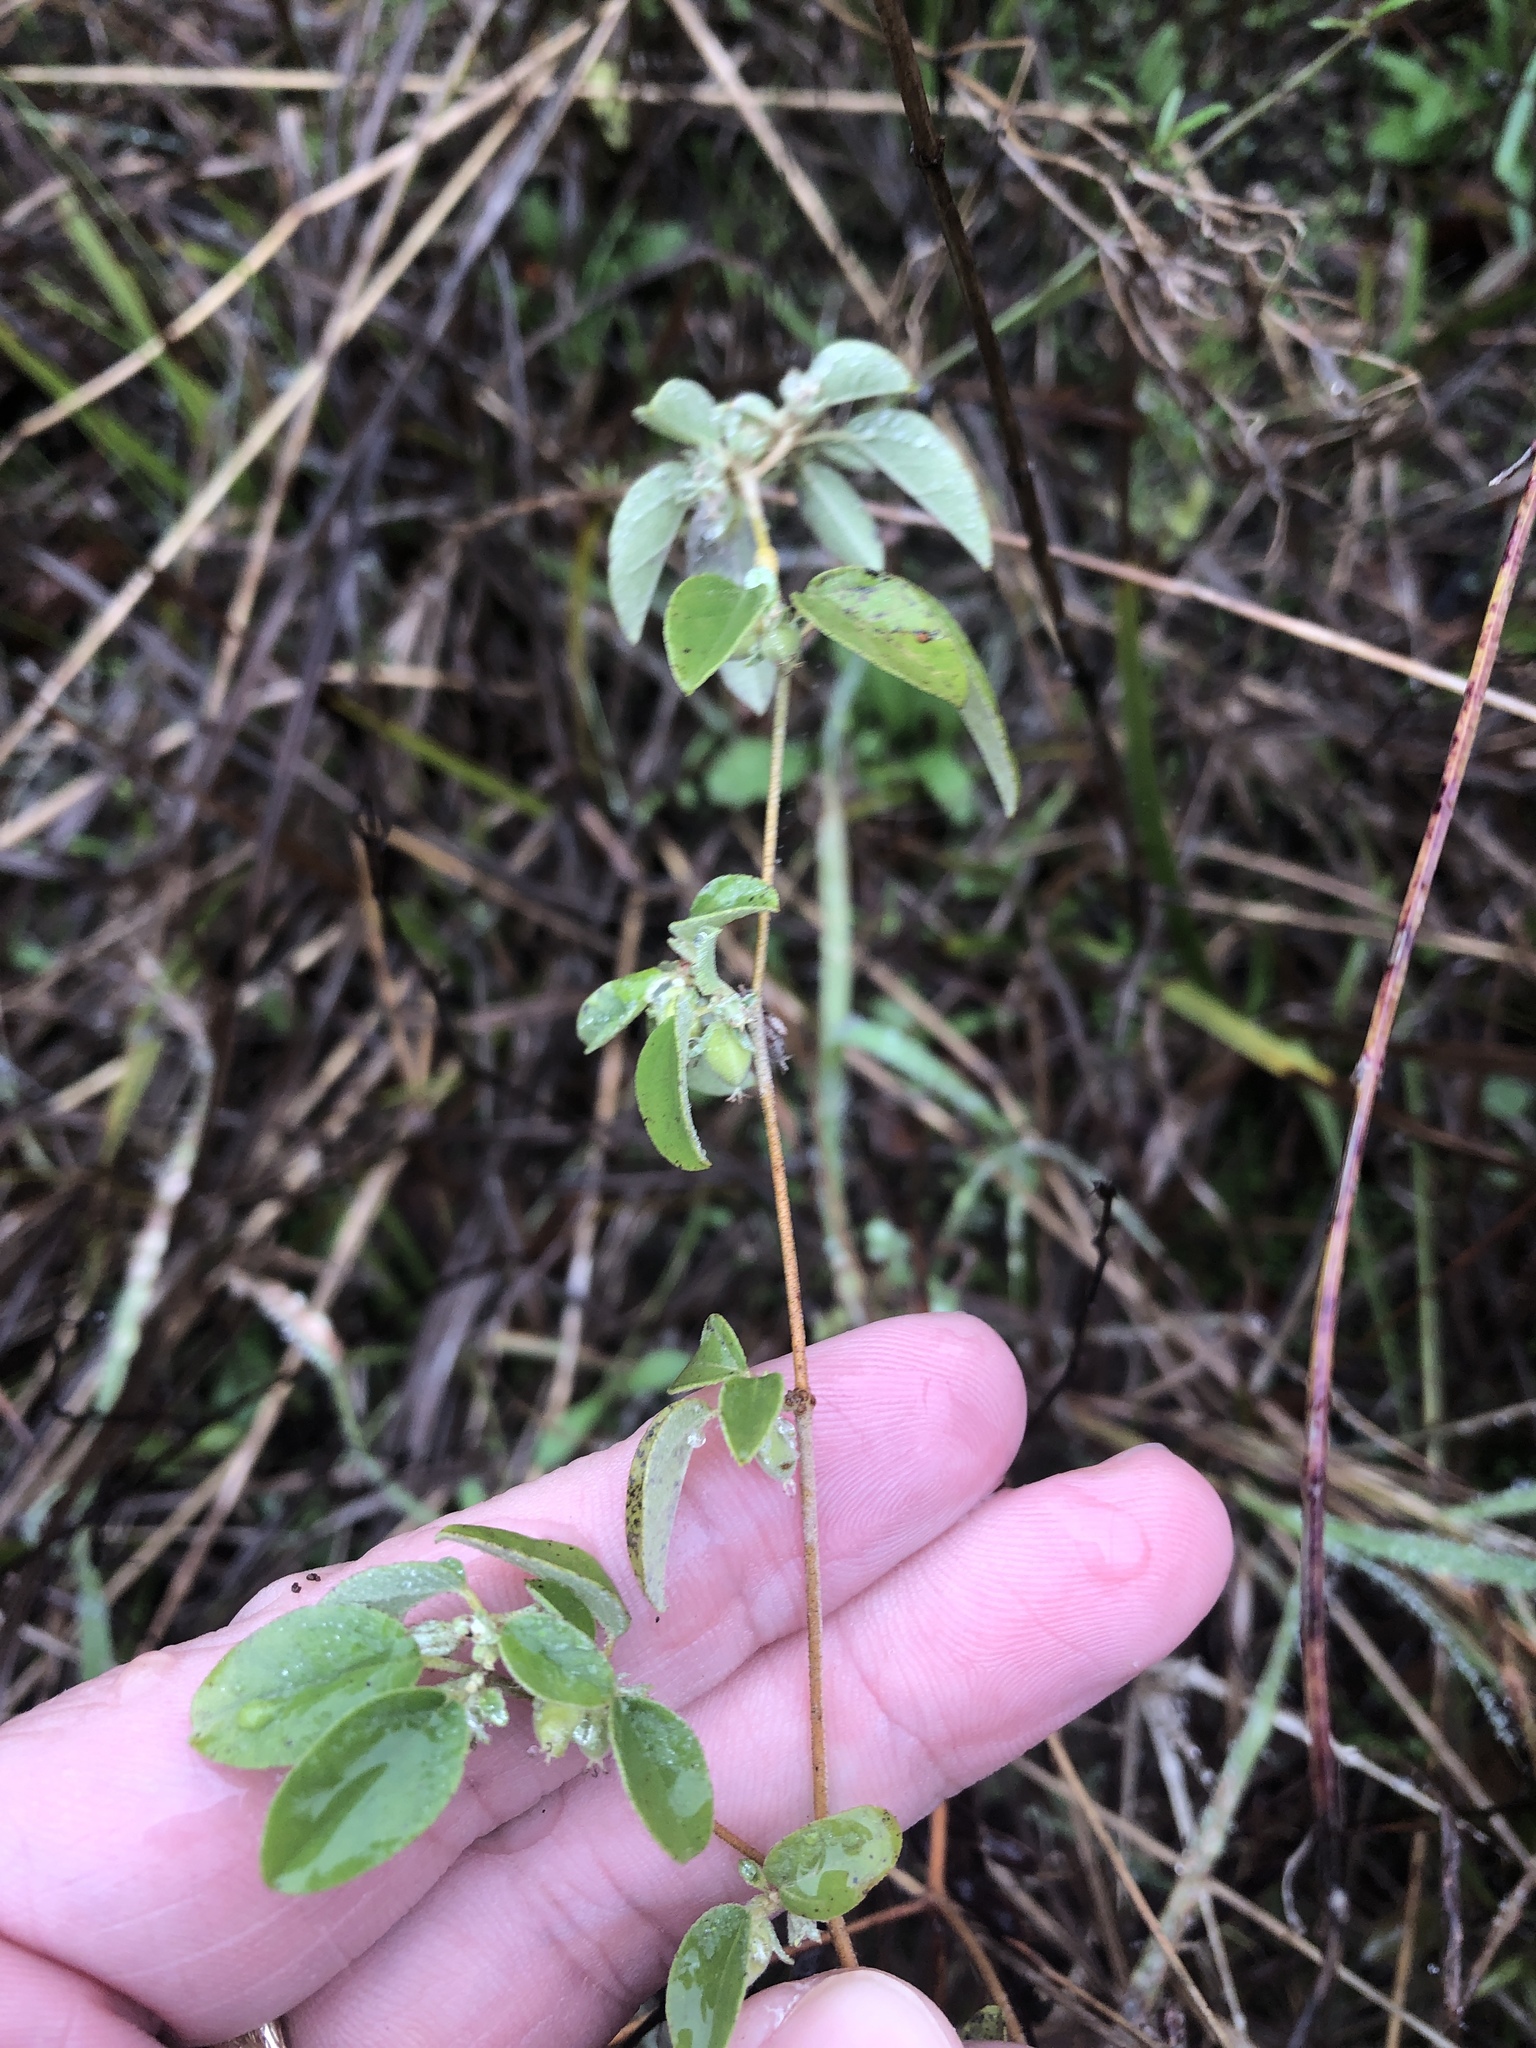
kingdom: Plantae
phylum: Tracheophyta
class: Magnoliopsida
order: Malpighiales
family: Euphorbiaceae
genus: Croton
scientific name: Croton monanthogynus
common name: One-seed croton
